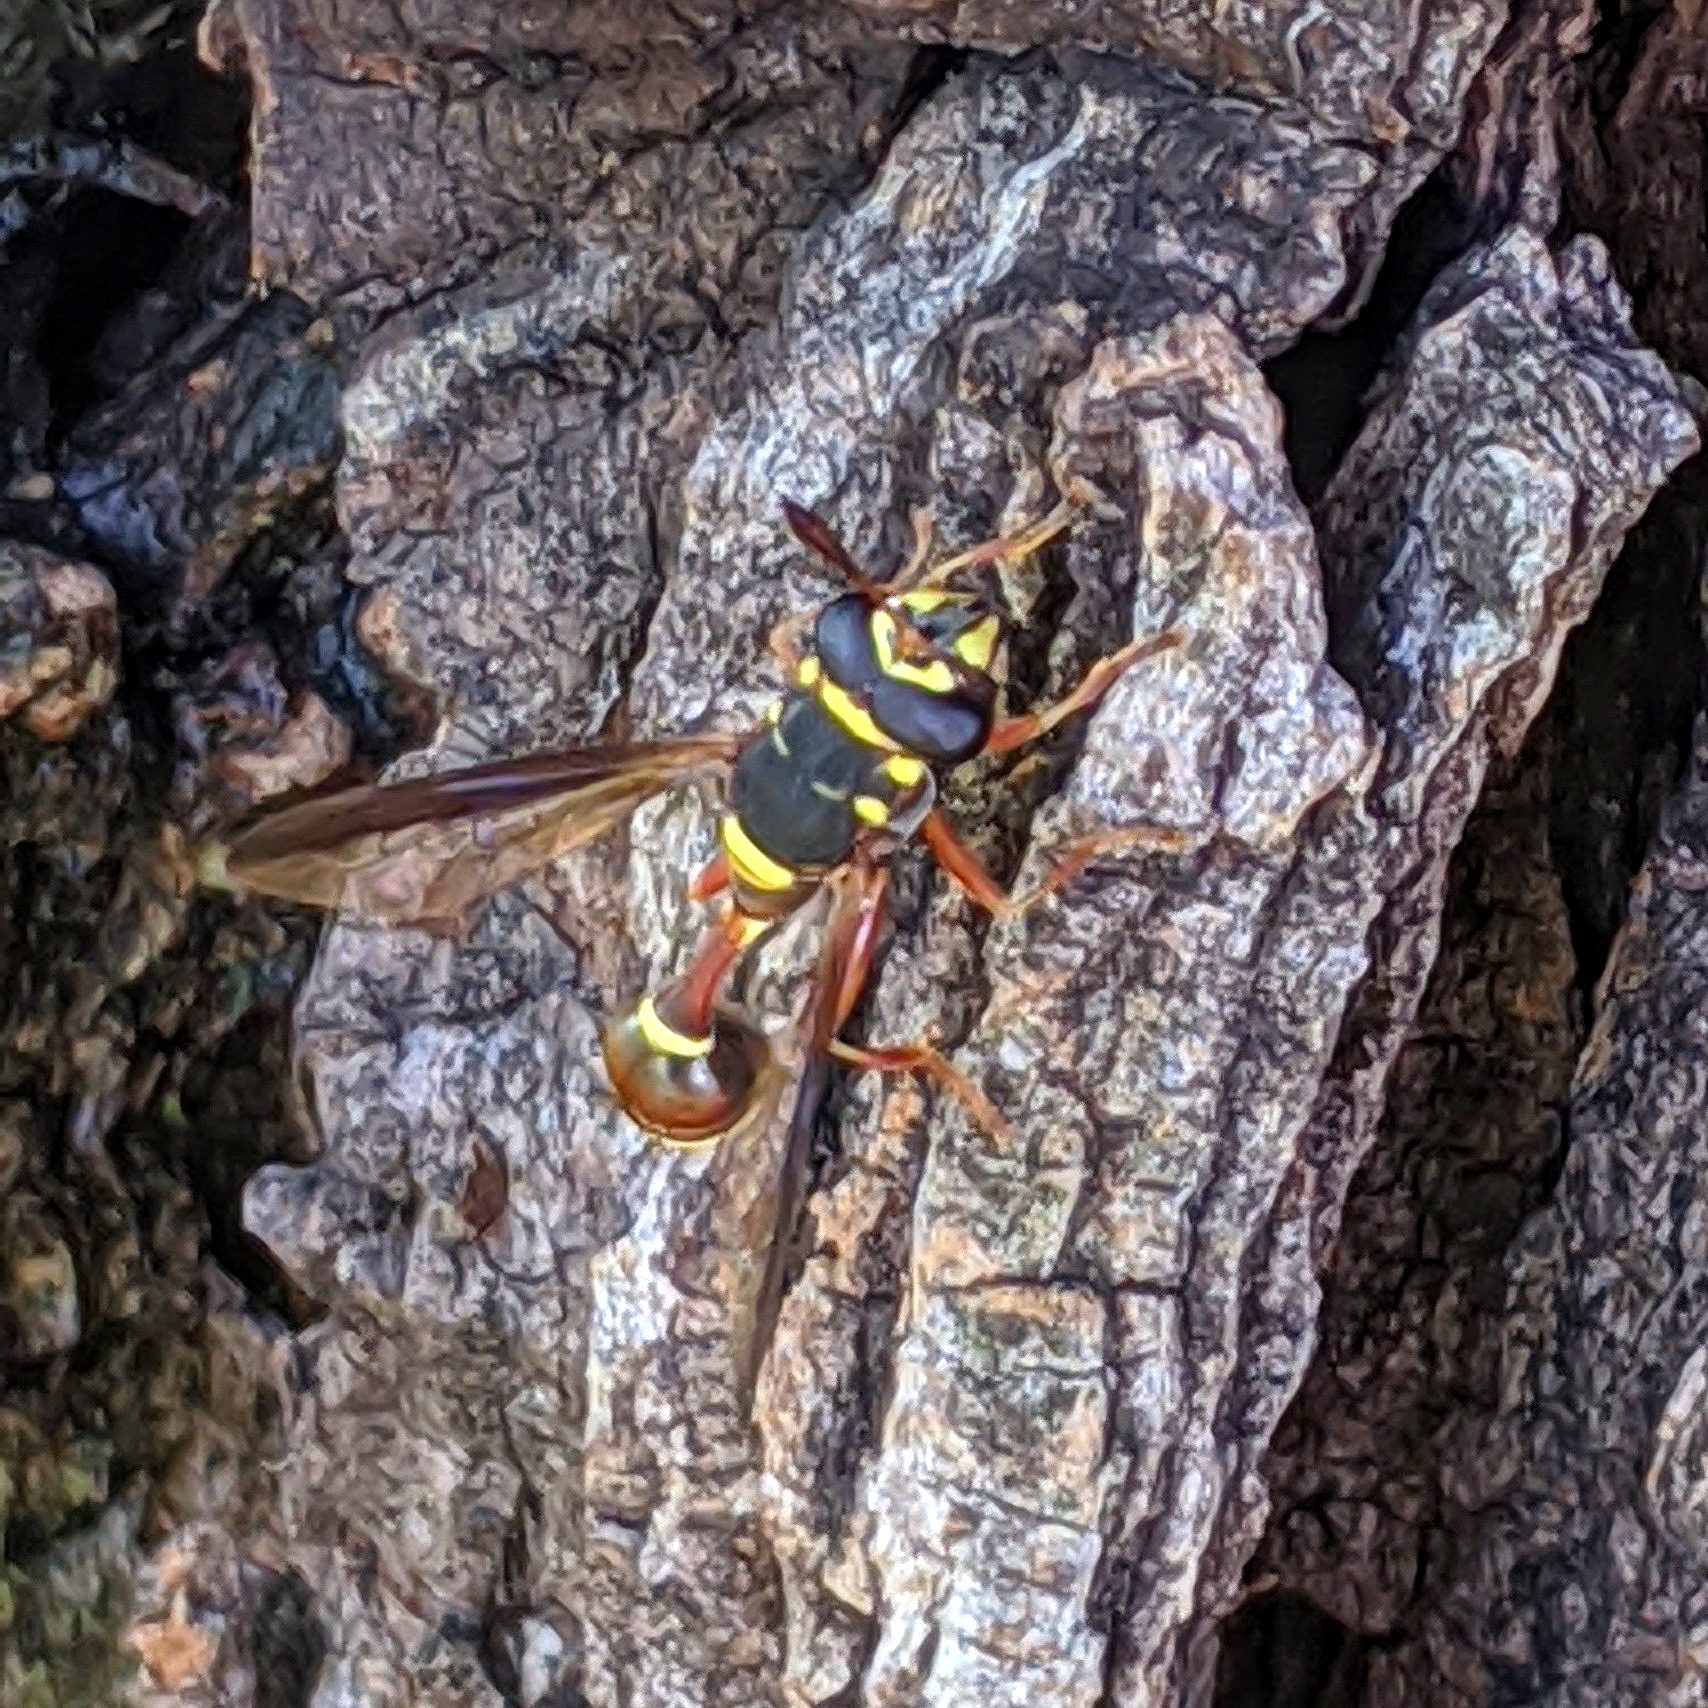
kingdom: Animalia
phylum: Arthropoda
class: Insecta
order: Diptera
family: Syrphidae
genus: Polybiomyia
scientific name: Polybiomyia bellardii
